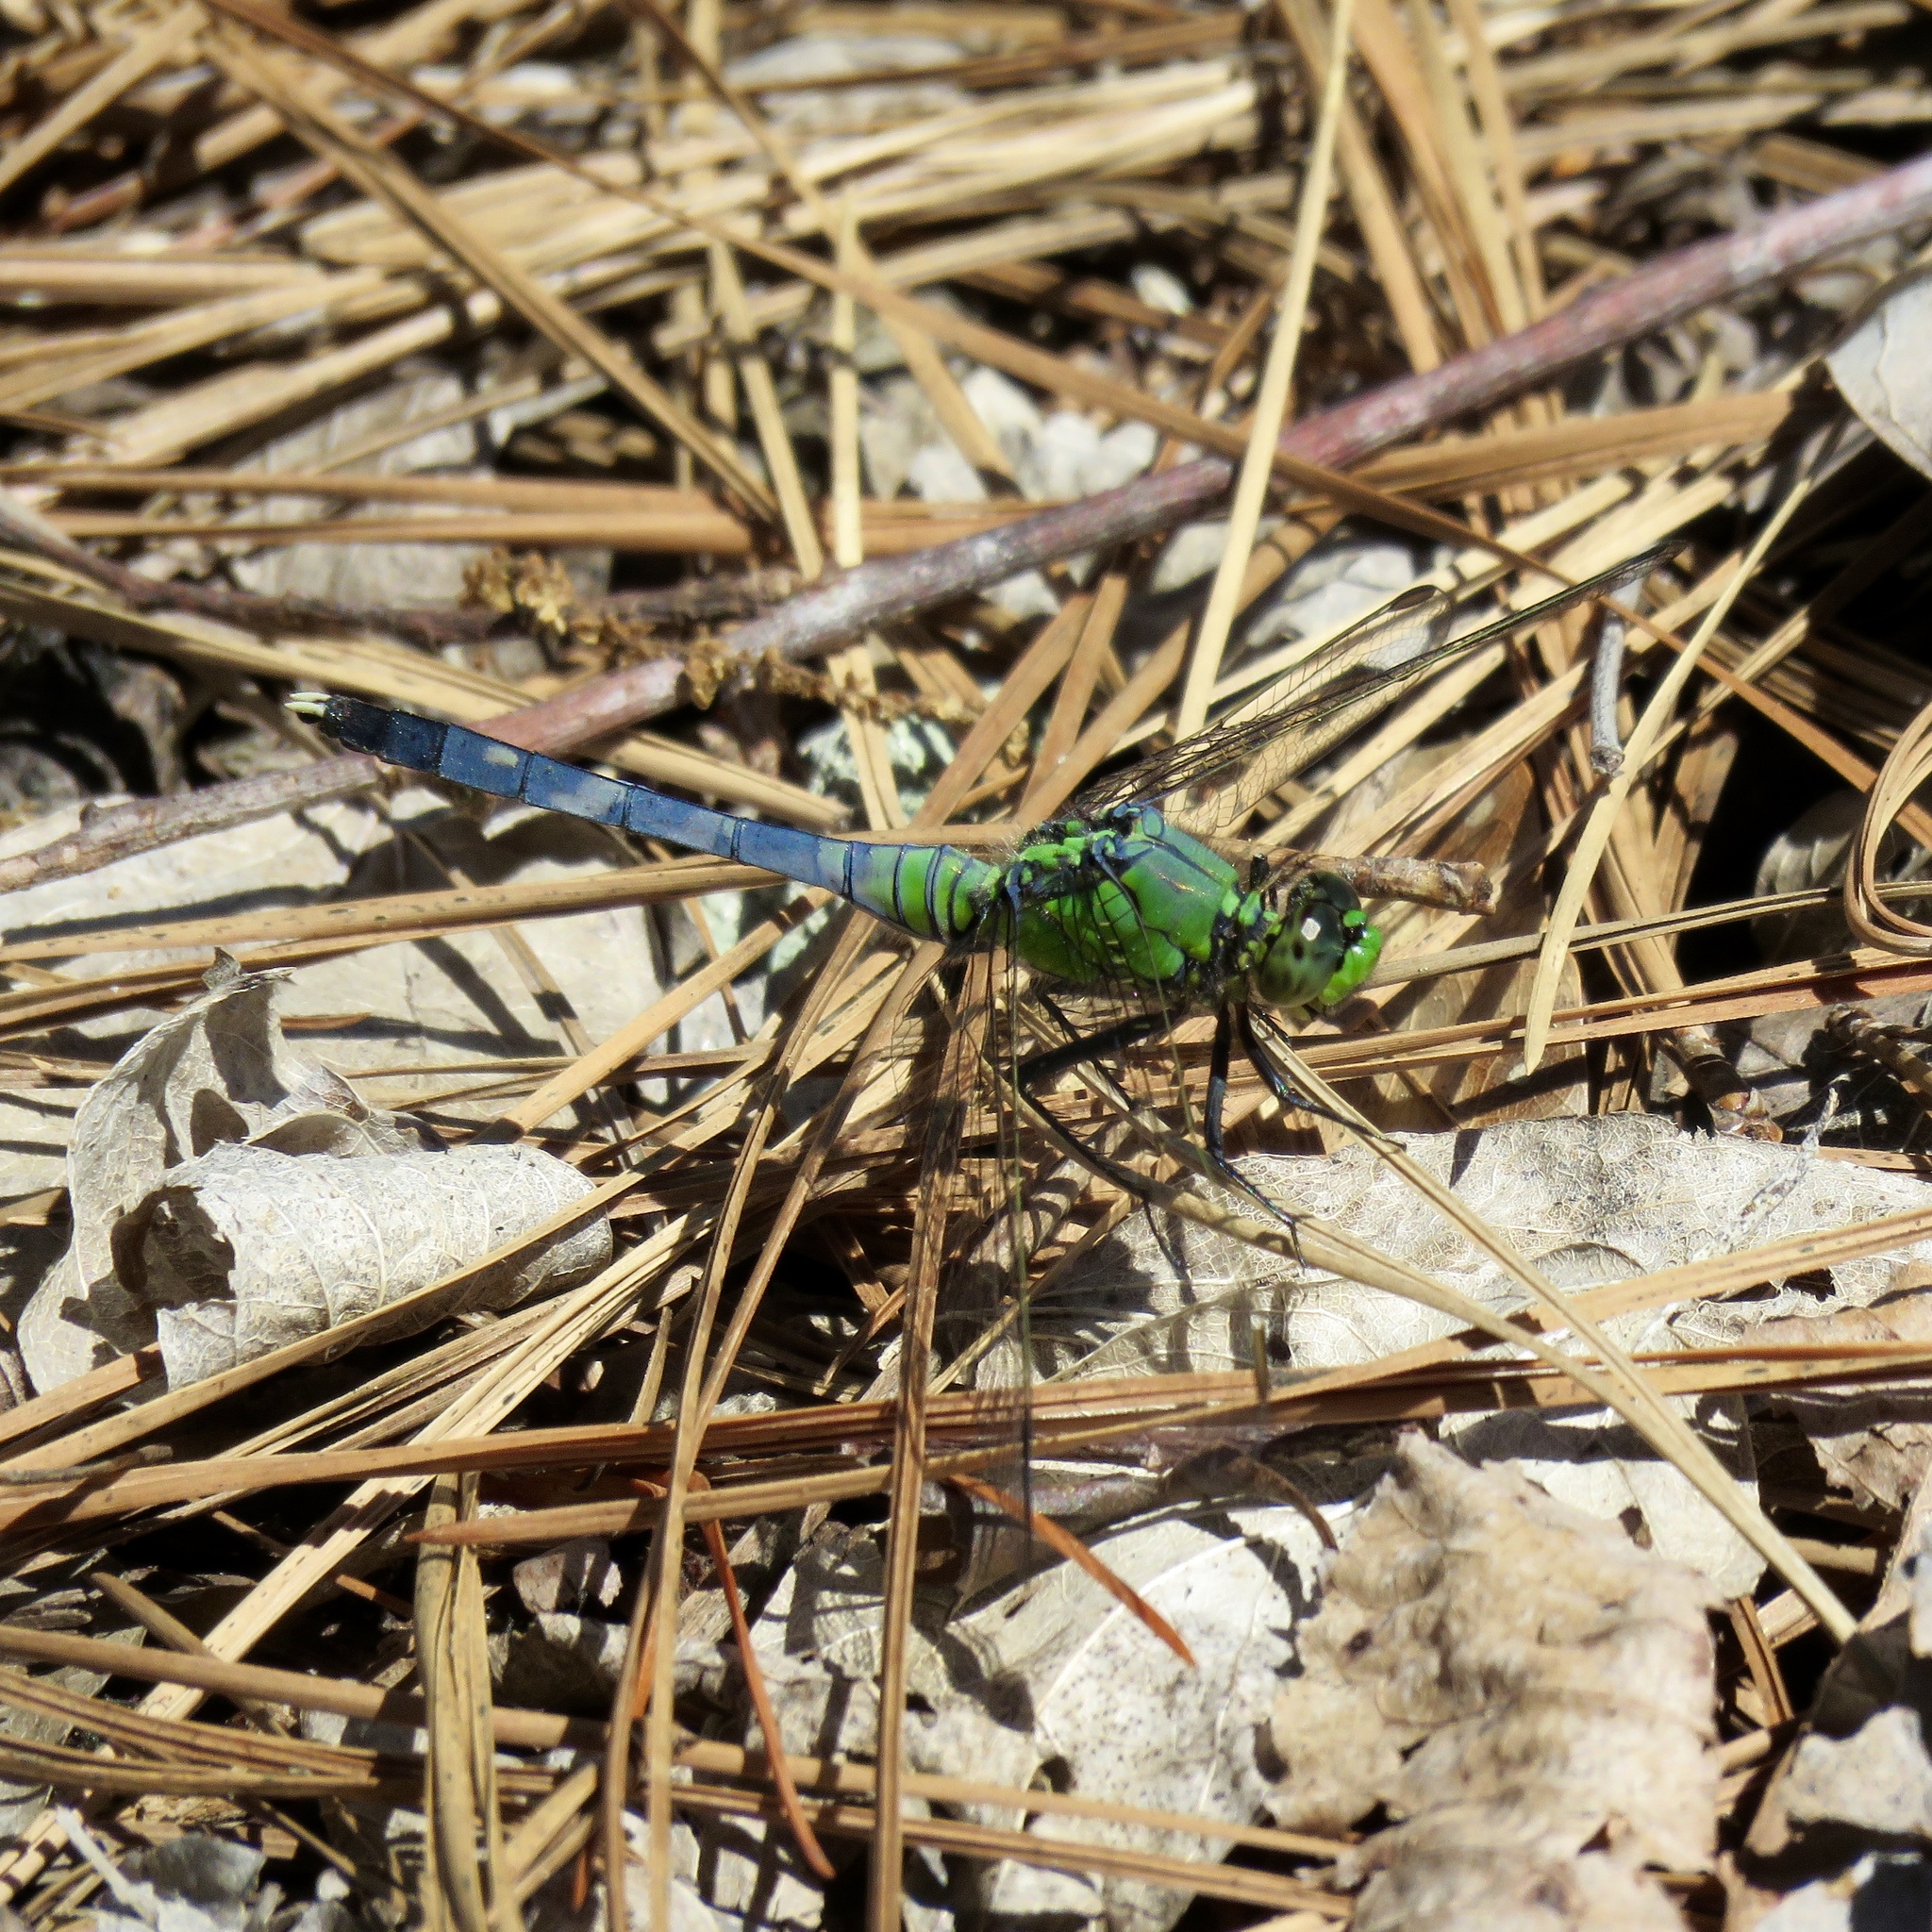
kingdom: Animalia
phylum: Arthropoda
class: Insecta
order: Odonata
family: Libellulidae
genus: Erythemis
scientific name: Erythemis simplicicollis
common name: Eastern pondhawk
